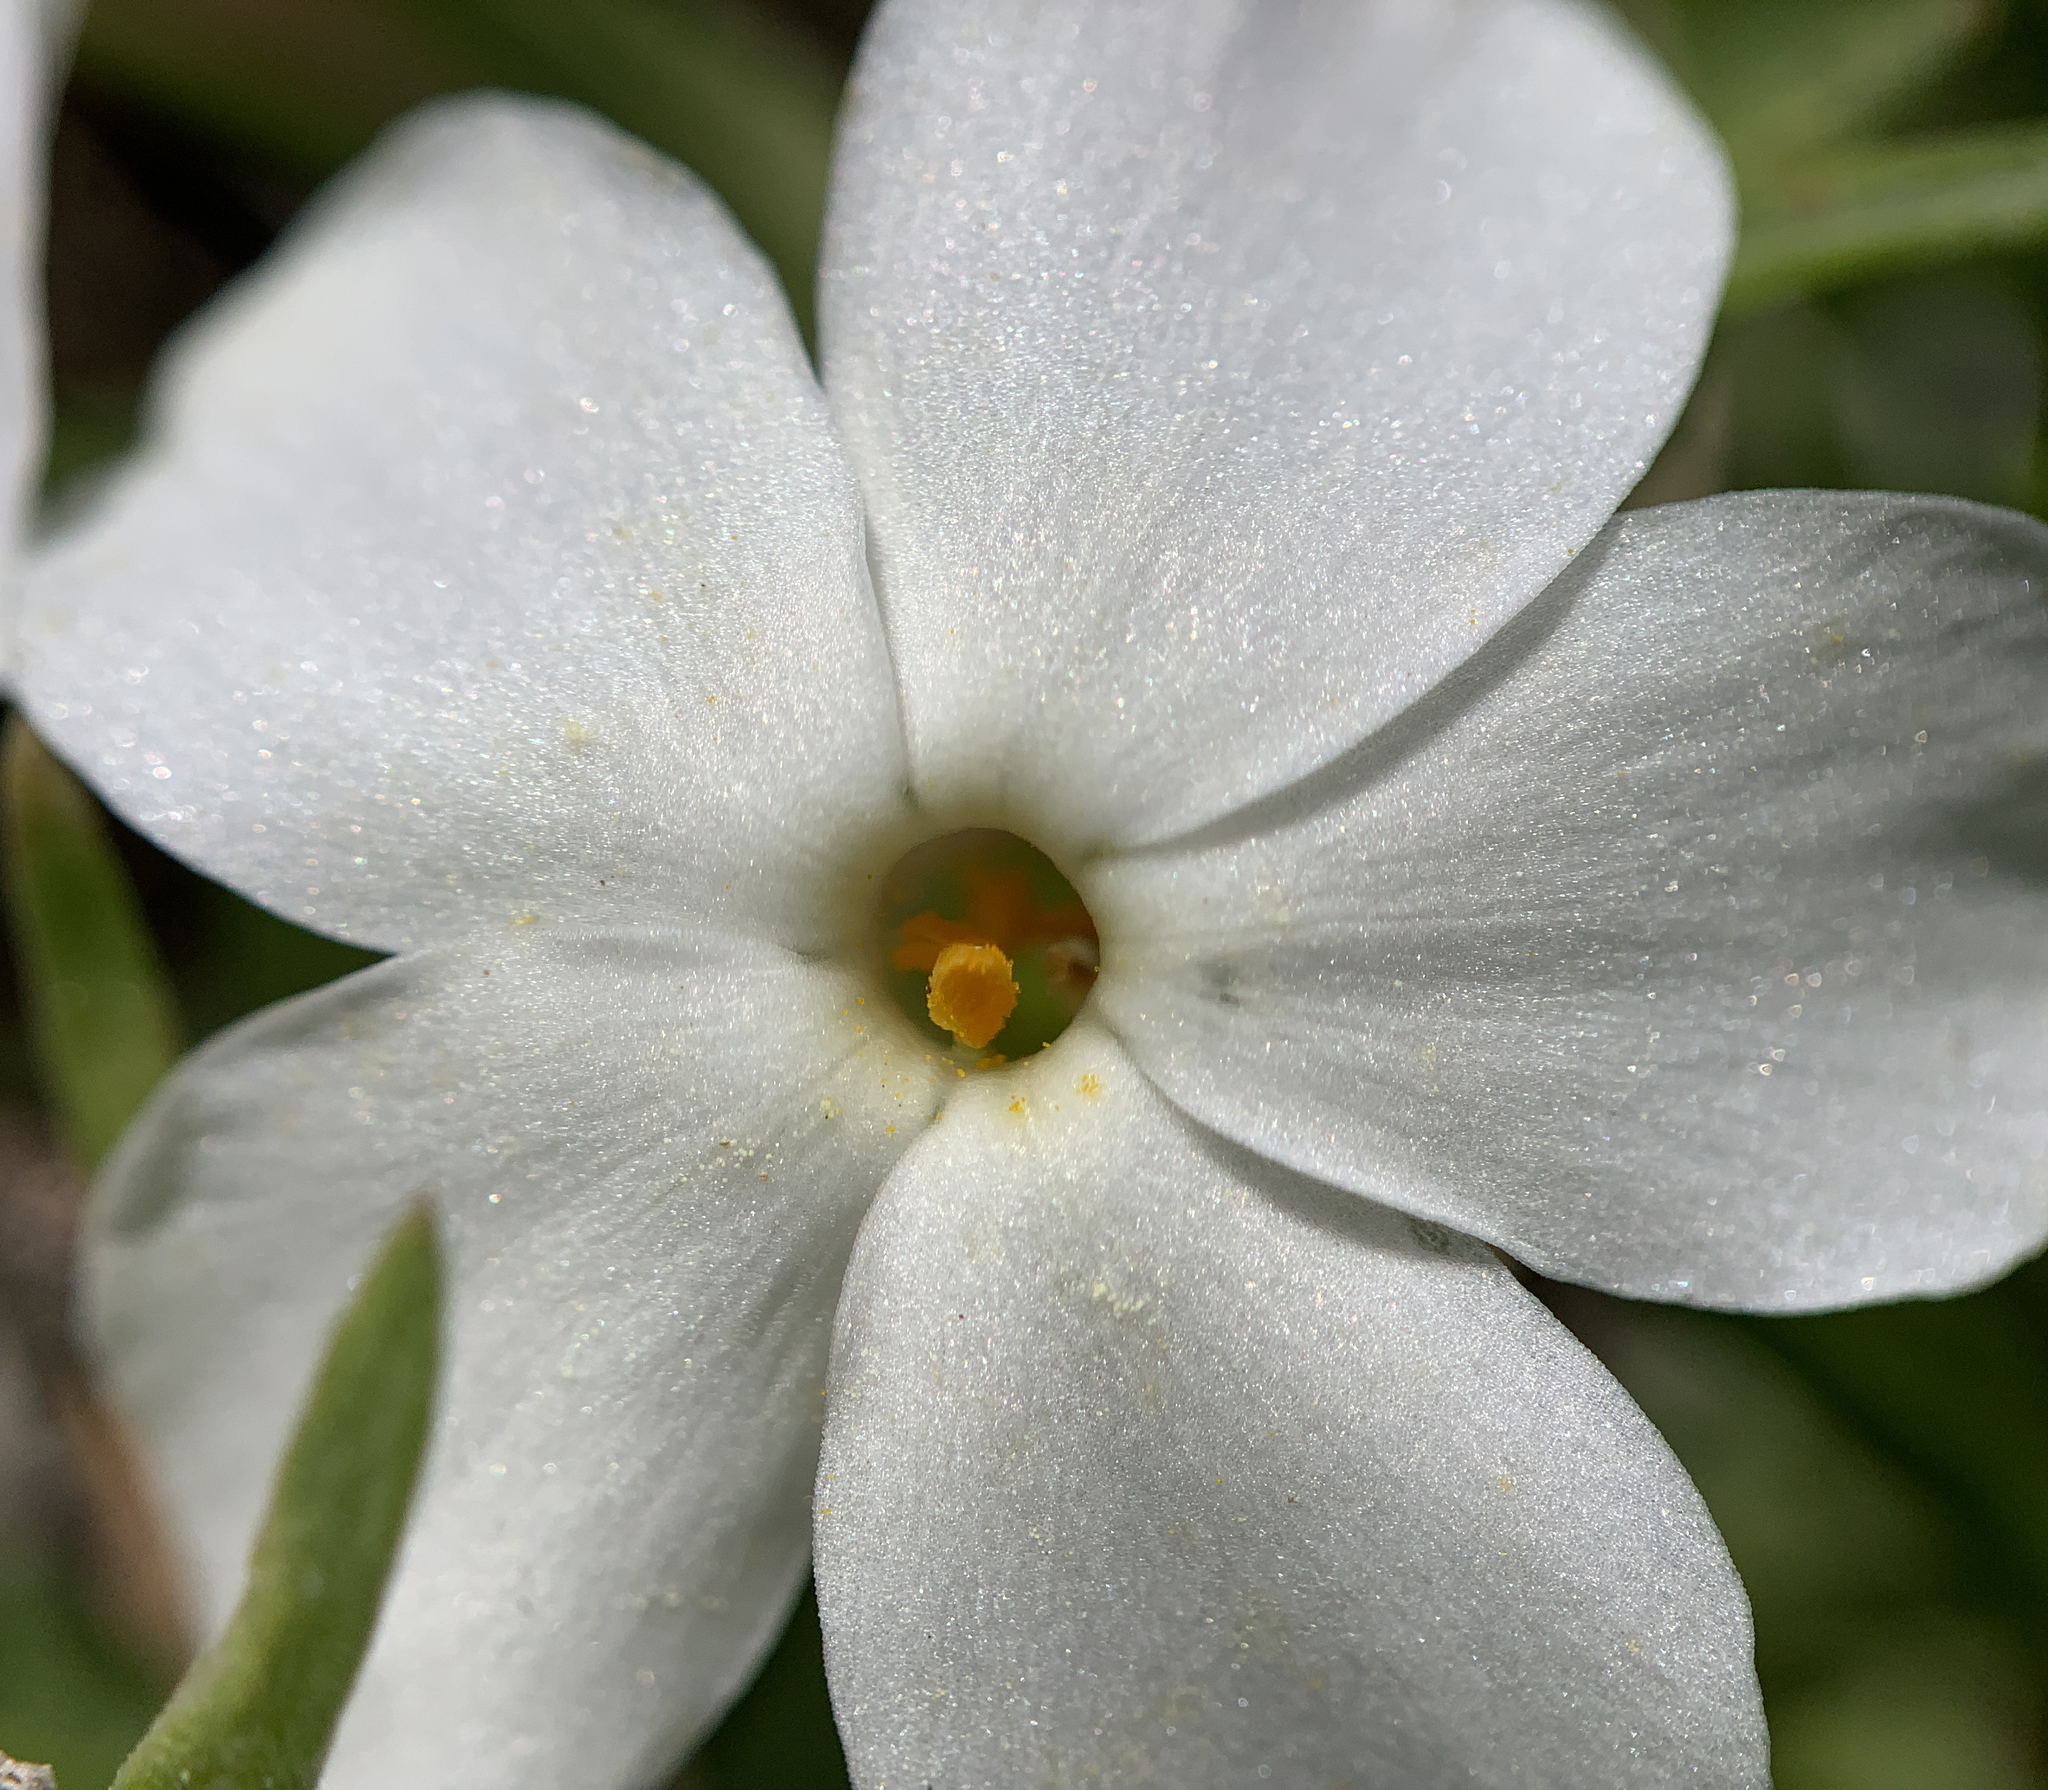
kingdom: Plantae
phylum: Tracheophyta
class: Magnoliopsida
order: Ericales
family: Polemoniaceae
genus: Phlox
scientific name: Phlox multiflora
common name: Rocky mountain phlox
